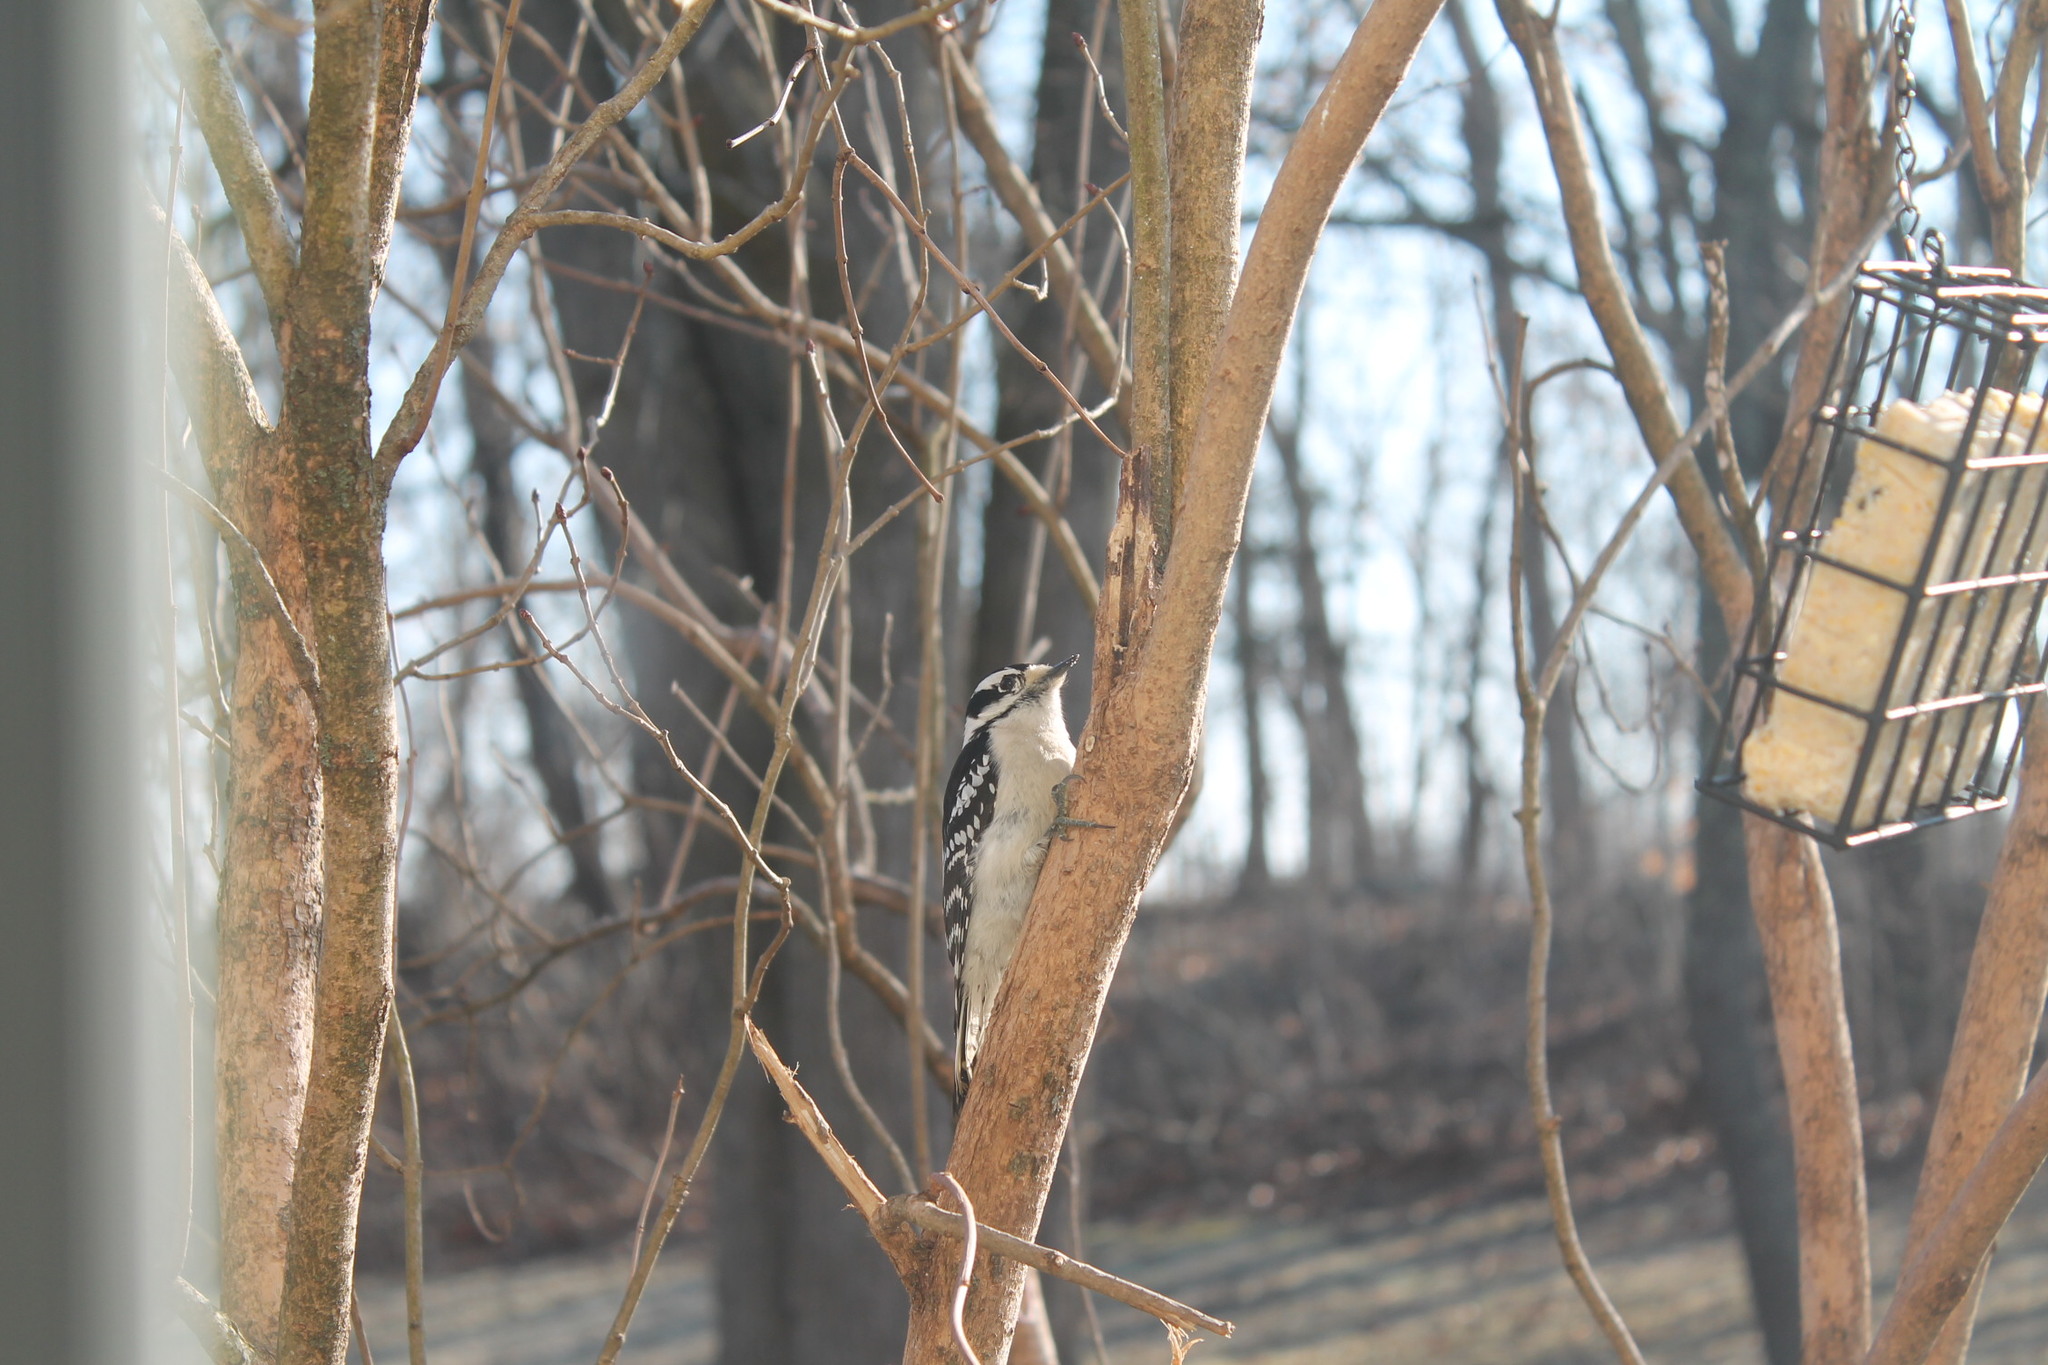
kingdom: Animalia
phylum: Chordata
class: Aves
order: Piciformes
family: Picidae
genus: Dryobates
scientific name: Dryobates pubescens
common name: Downy woodpecker
